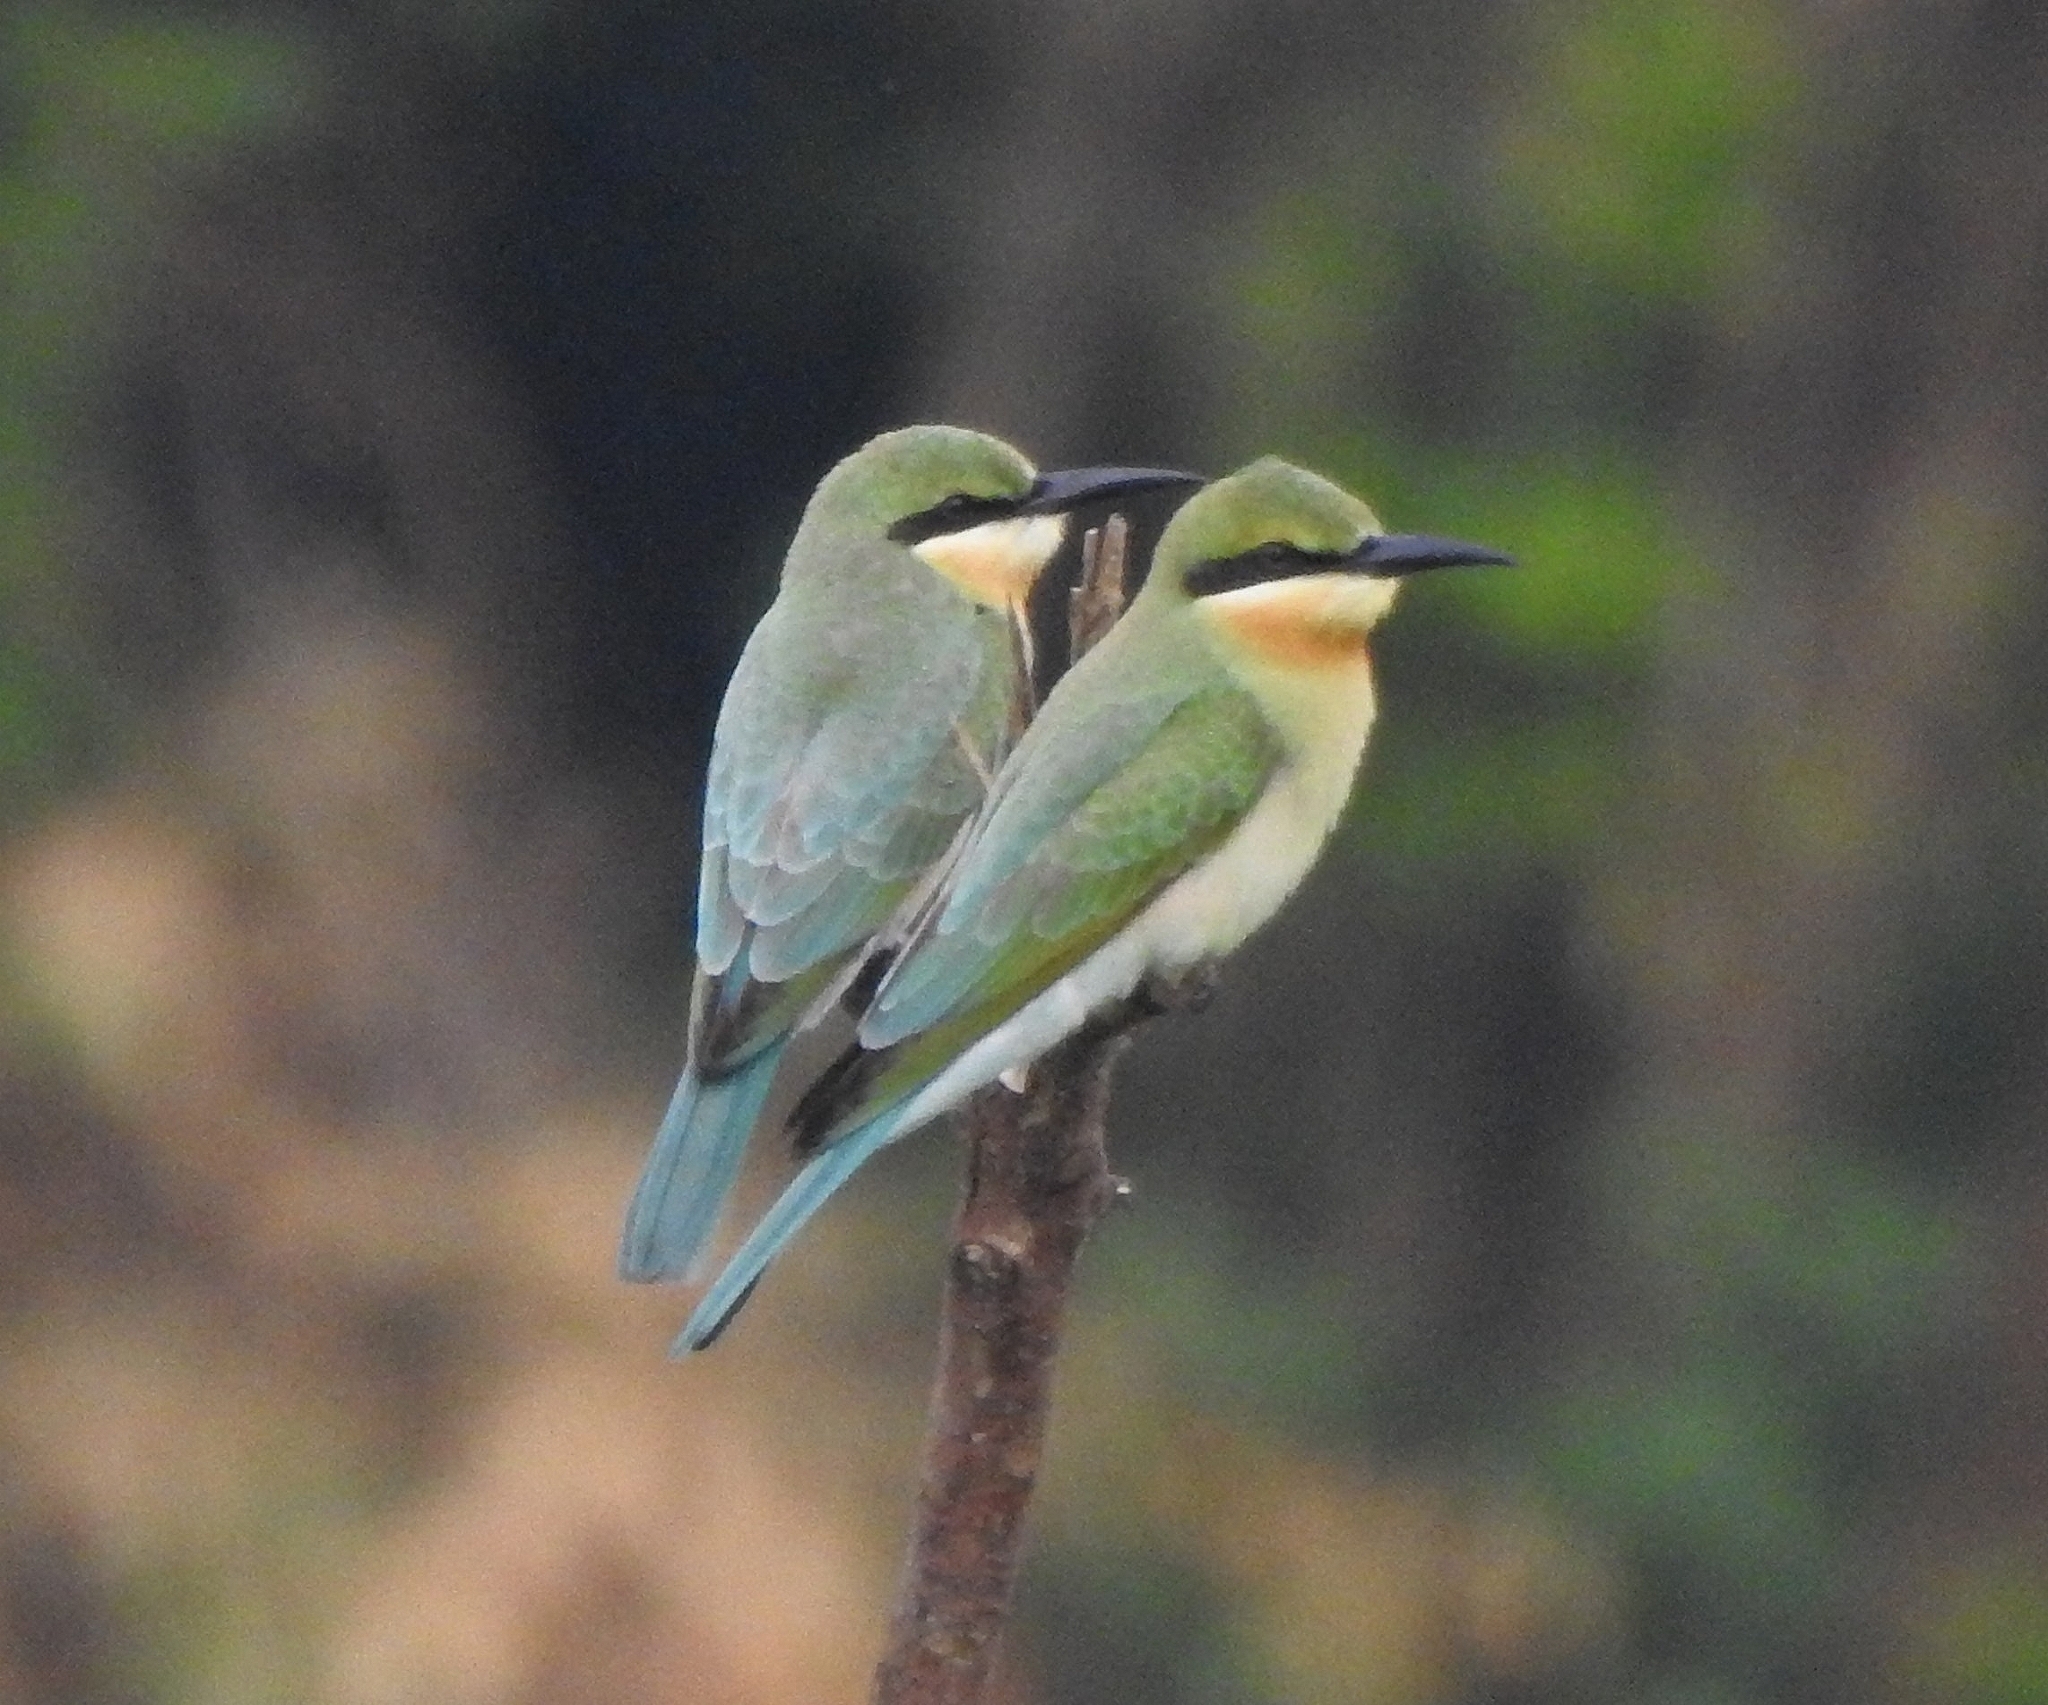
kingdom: Animalia
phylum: Chordata
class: Aves
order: Coraciiformes
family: Meropidae
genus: Merops
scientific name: Merops philippinus
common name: Blue-tailed bee-eater
